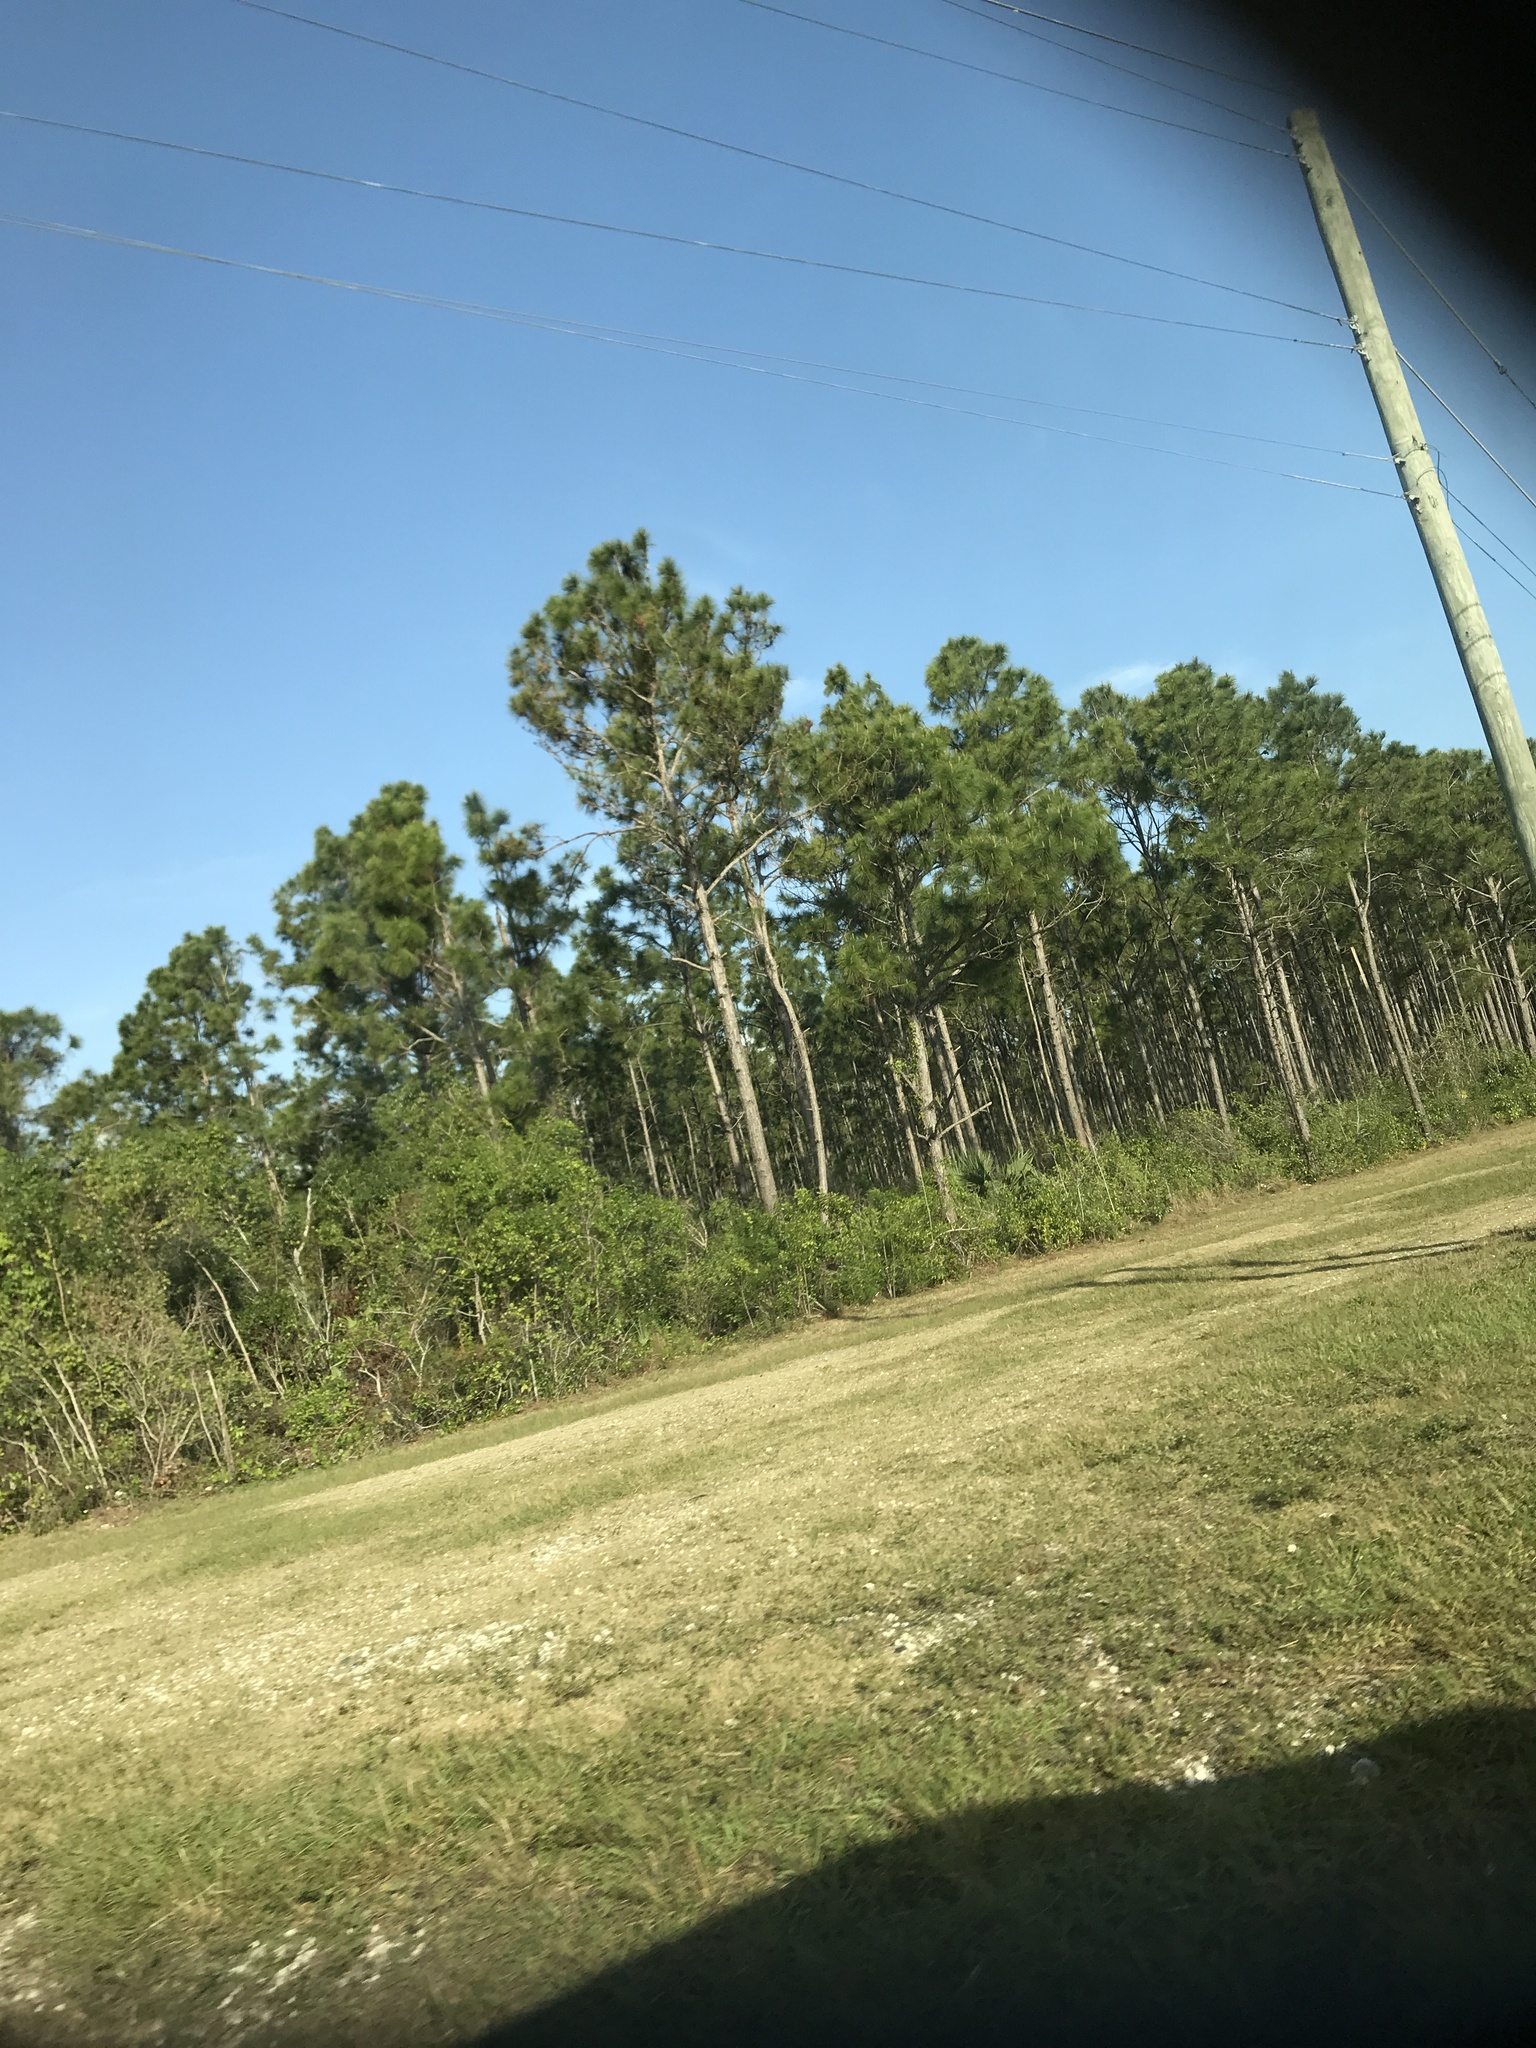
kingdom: Plantae
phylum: Tracheophyta
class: Pinopsida
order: Pinales
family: Pinaceae
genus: Pinus
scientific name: Pinus elliottii
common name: Slash pine
